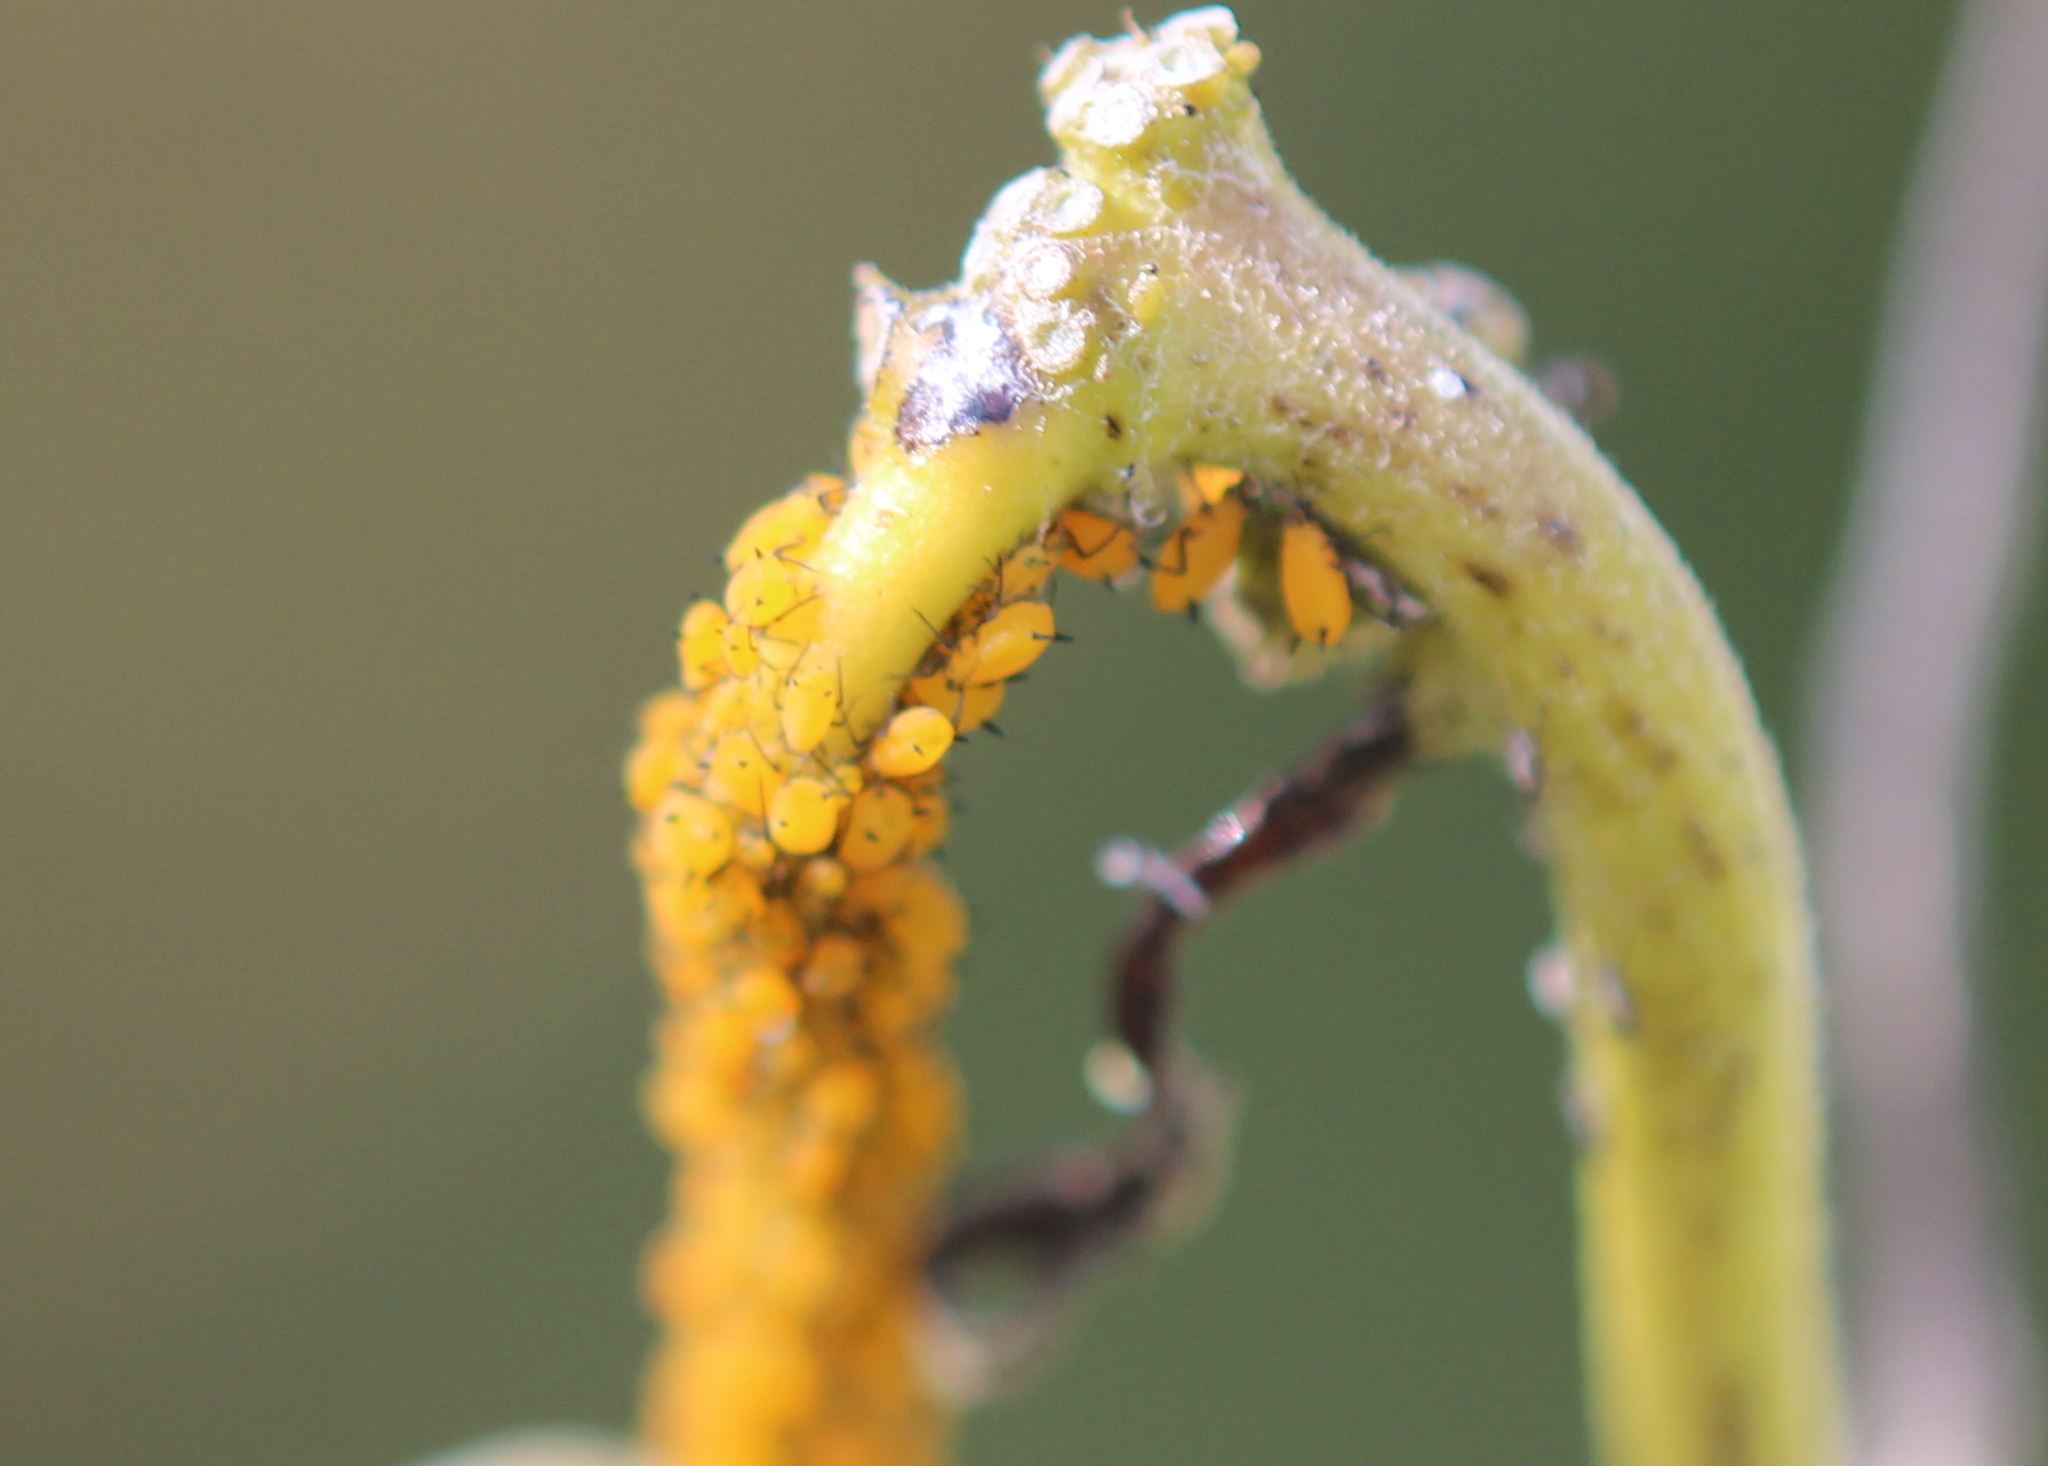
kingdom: Animalia
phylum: Arthropoda
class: Insecta
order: Hemiptera
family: Aphididae
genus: Aphis
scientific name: Aphis nerii
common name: Oleander aphid
